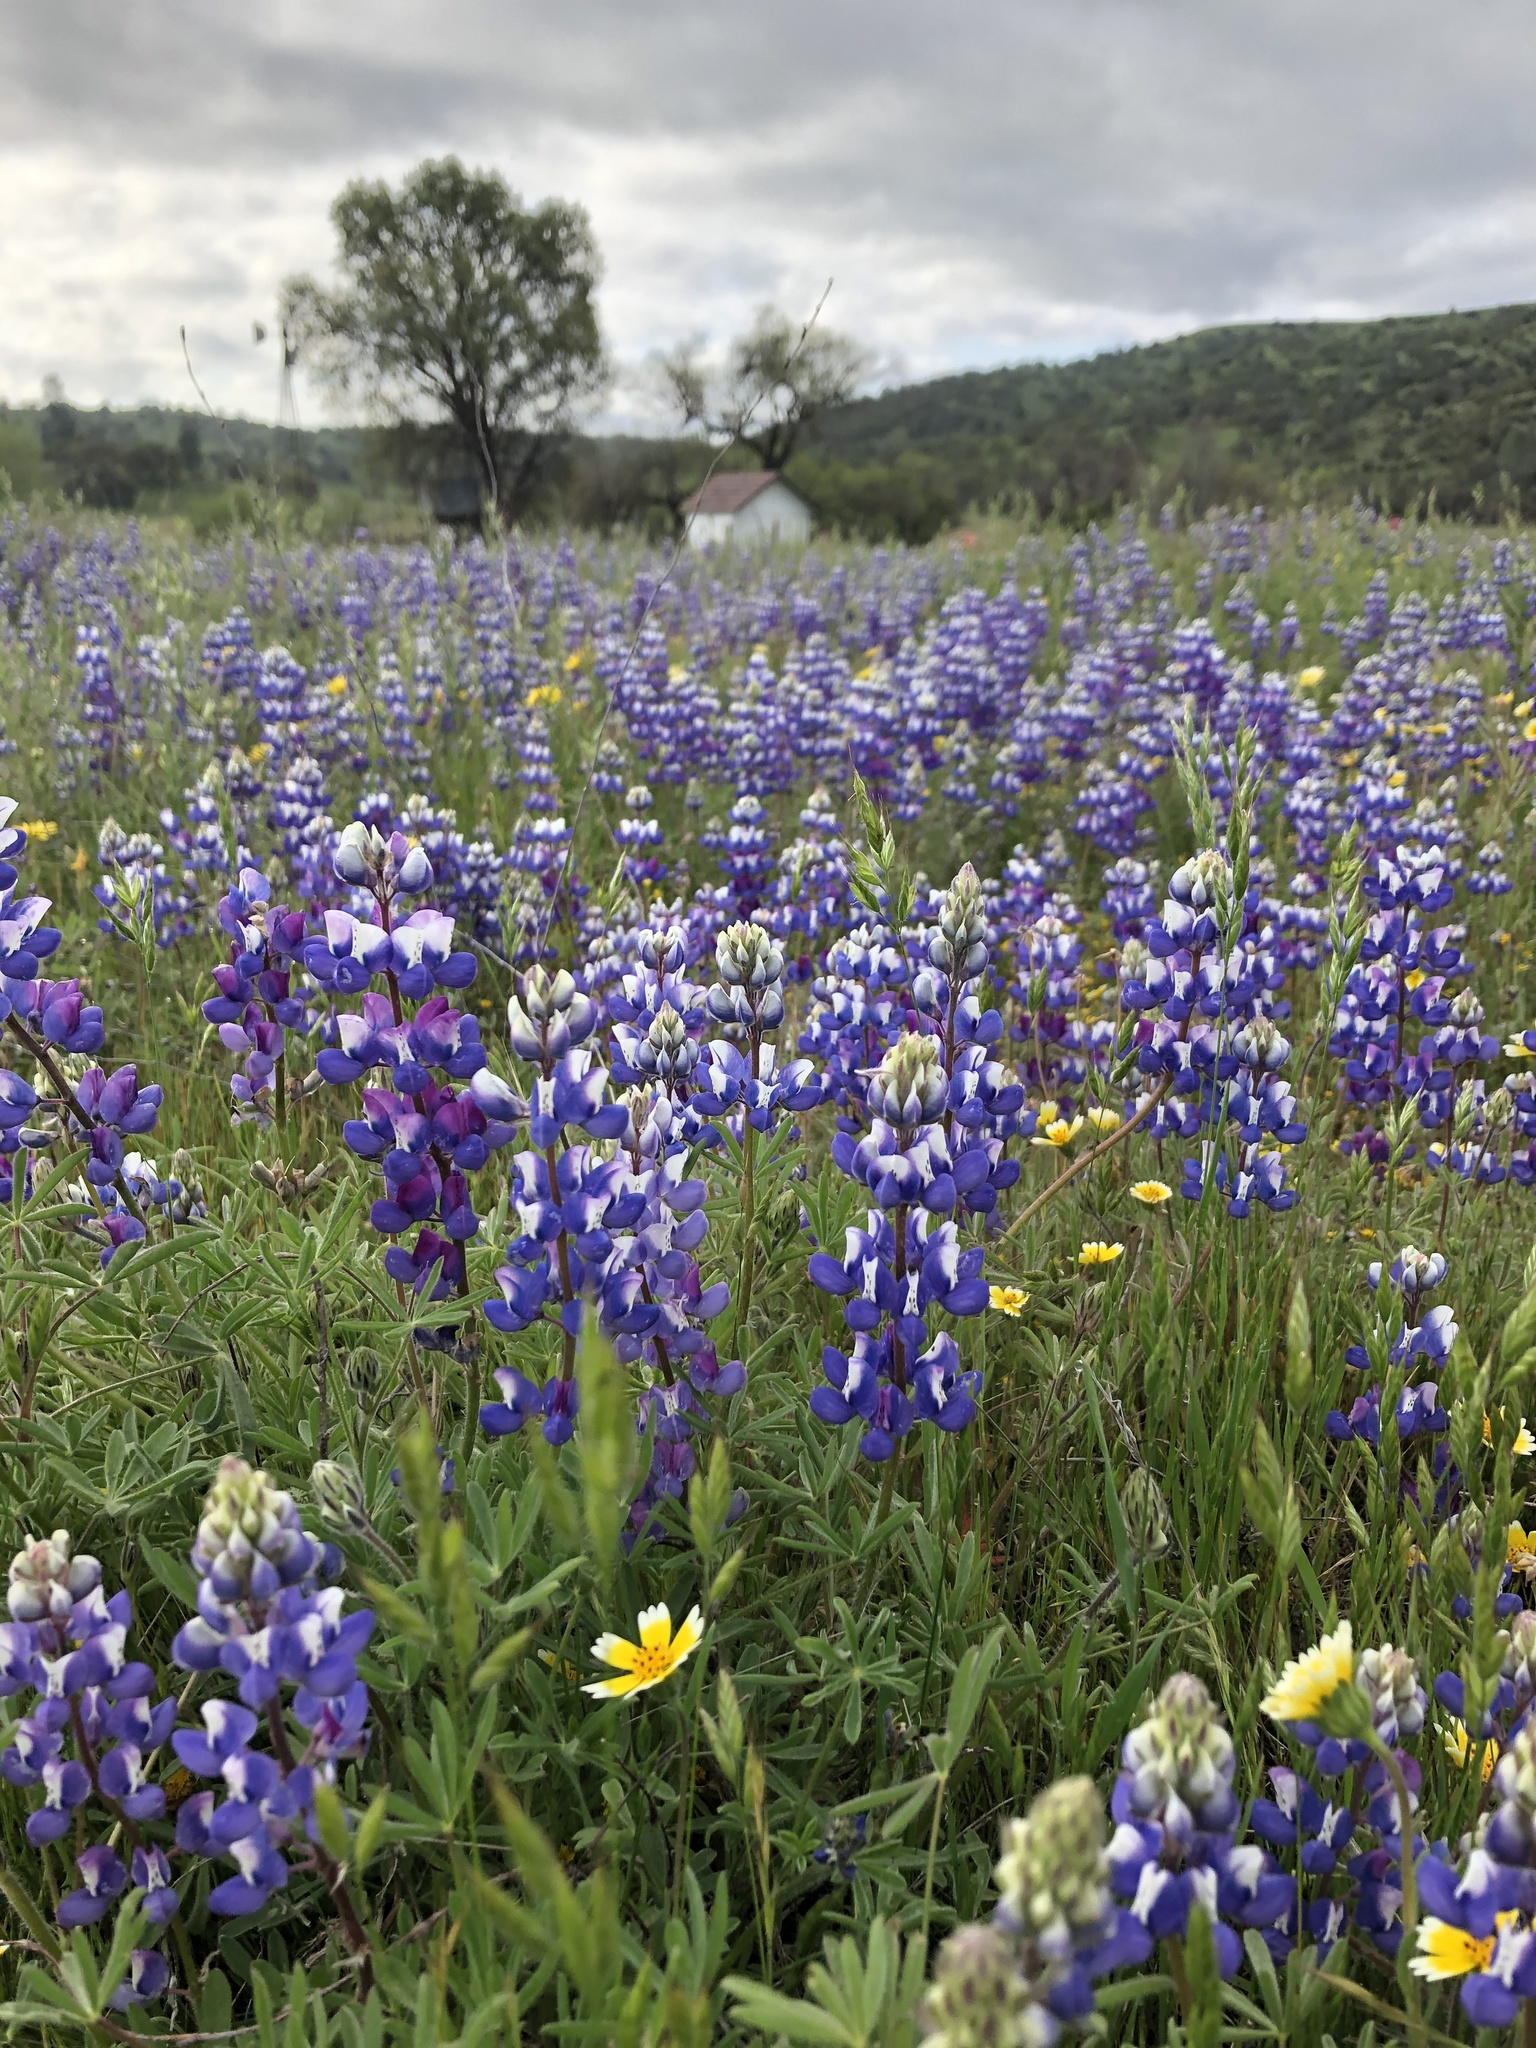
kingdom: Plantae
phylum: Tracheophyta
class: Magnoliopsida
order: Fabales
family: Fabaceae
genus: Lupinus
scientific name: Lupinus nanus
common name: Orean blue lupin
